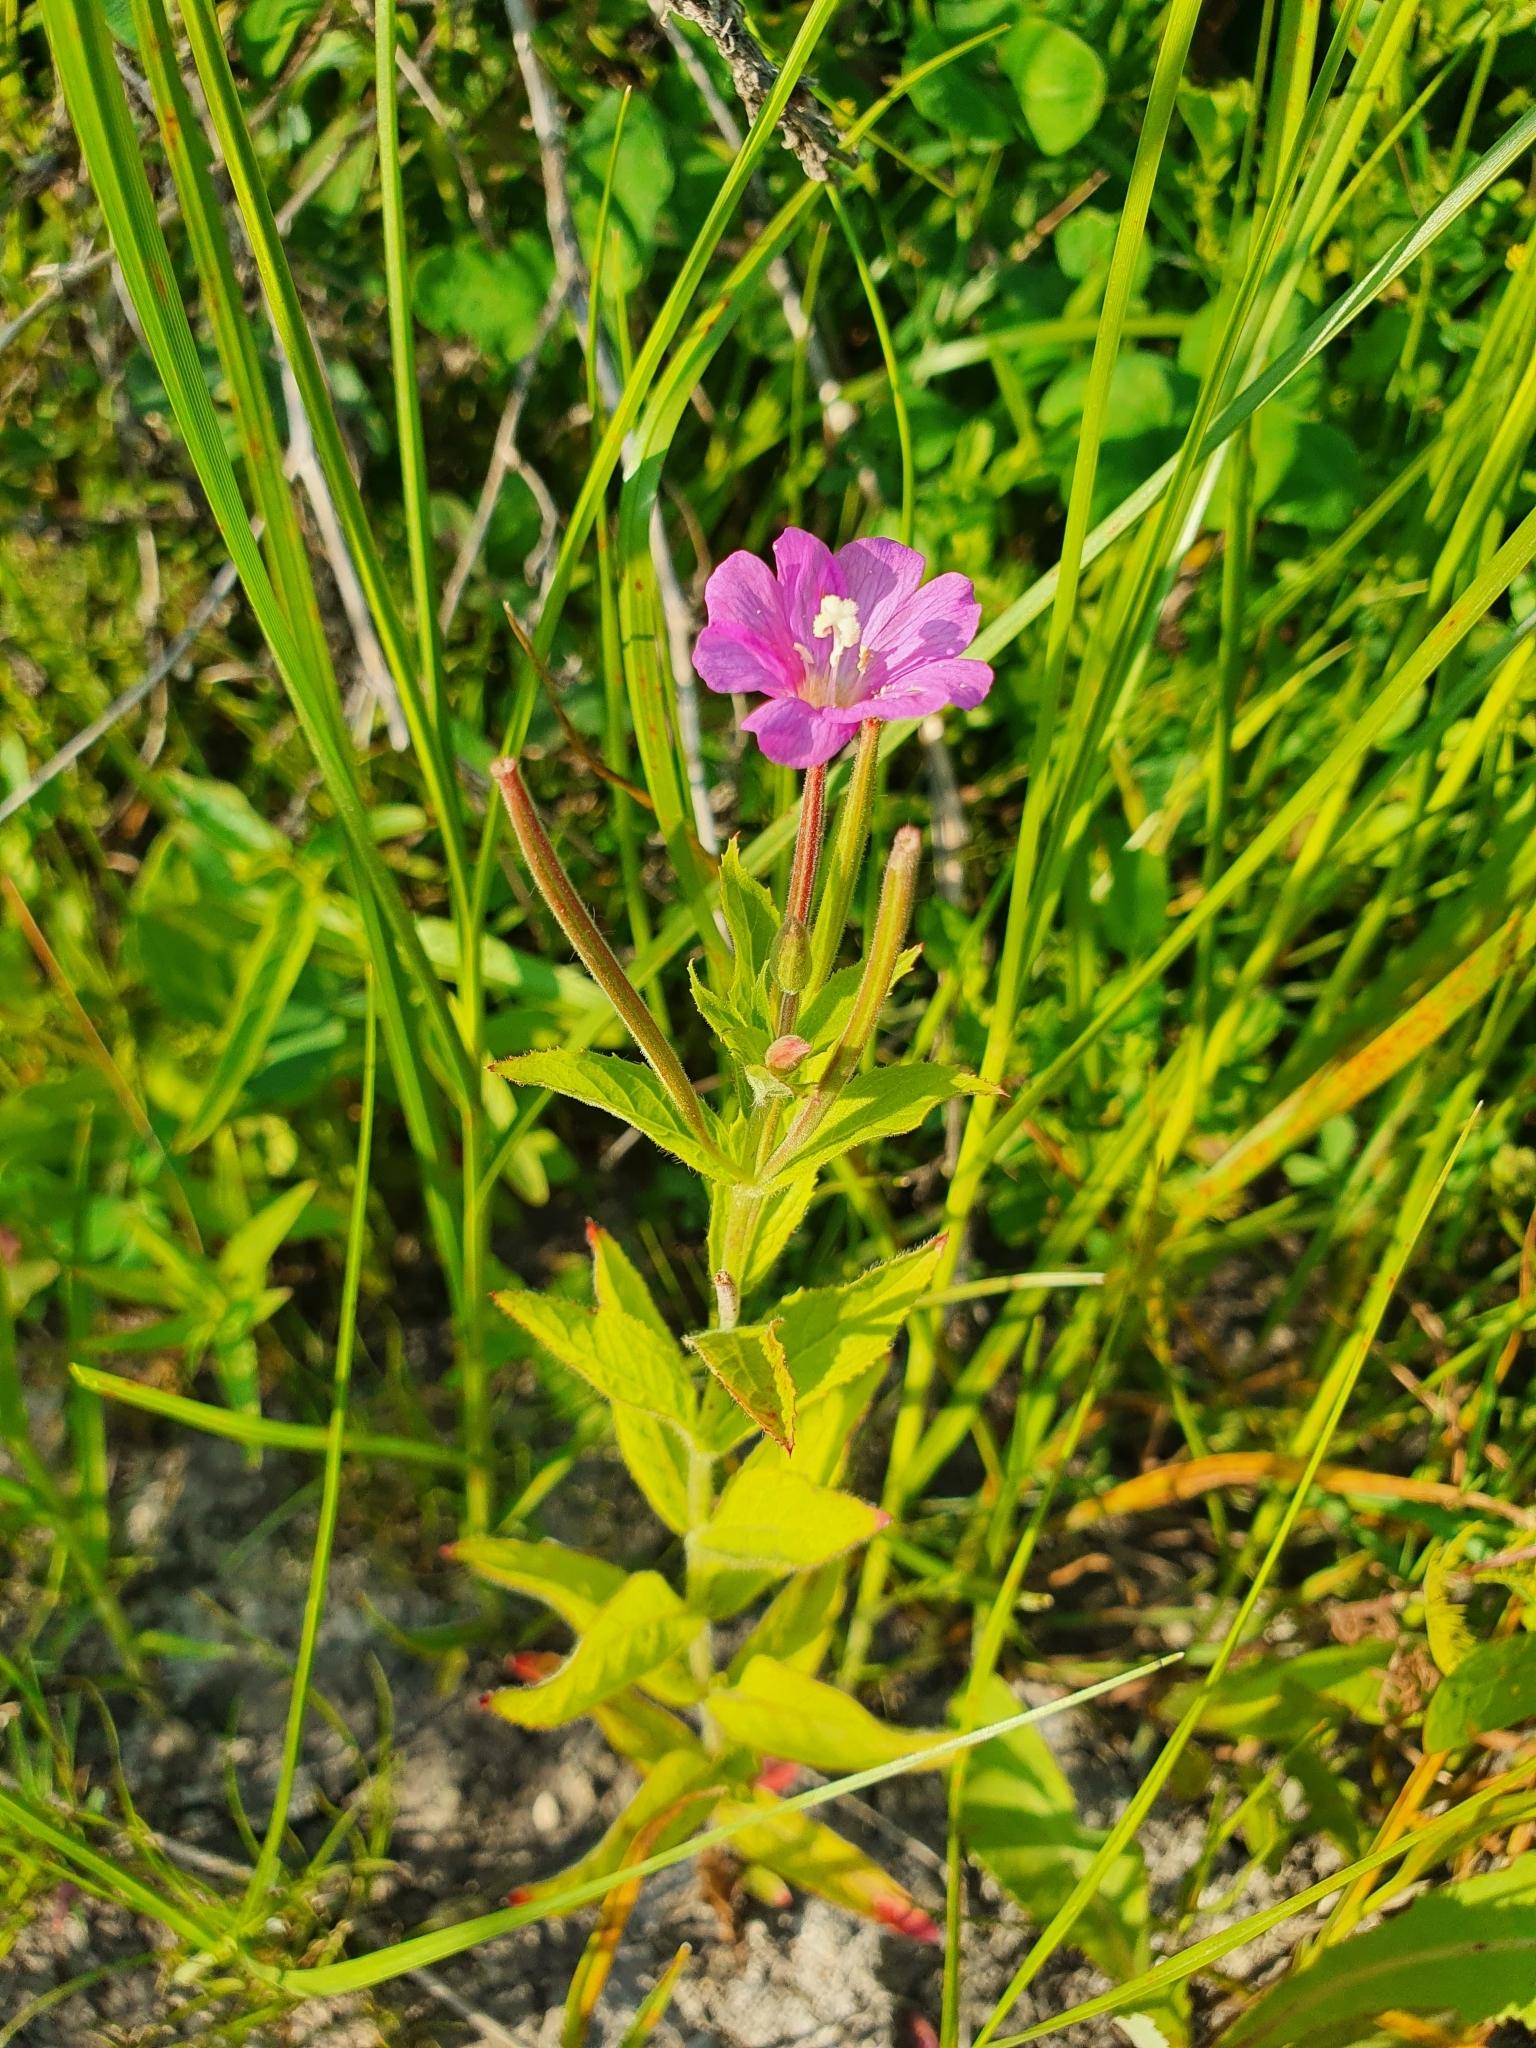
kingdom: Plantae
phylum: Tracheophyta
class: Magnoliopsida
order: Myrtales
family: Onagraceae
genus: Epilobium
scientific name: Epilobium hirsutum
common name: Great willowherb
